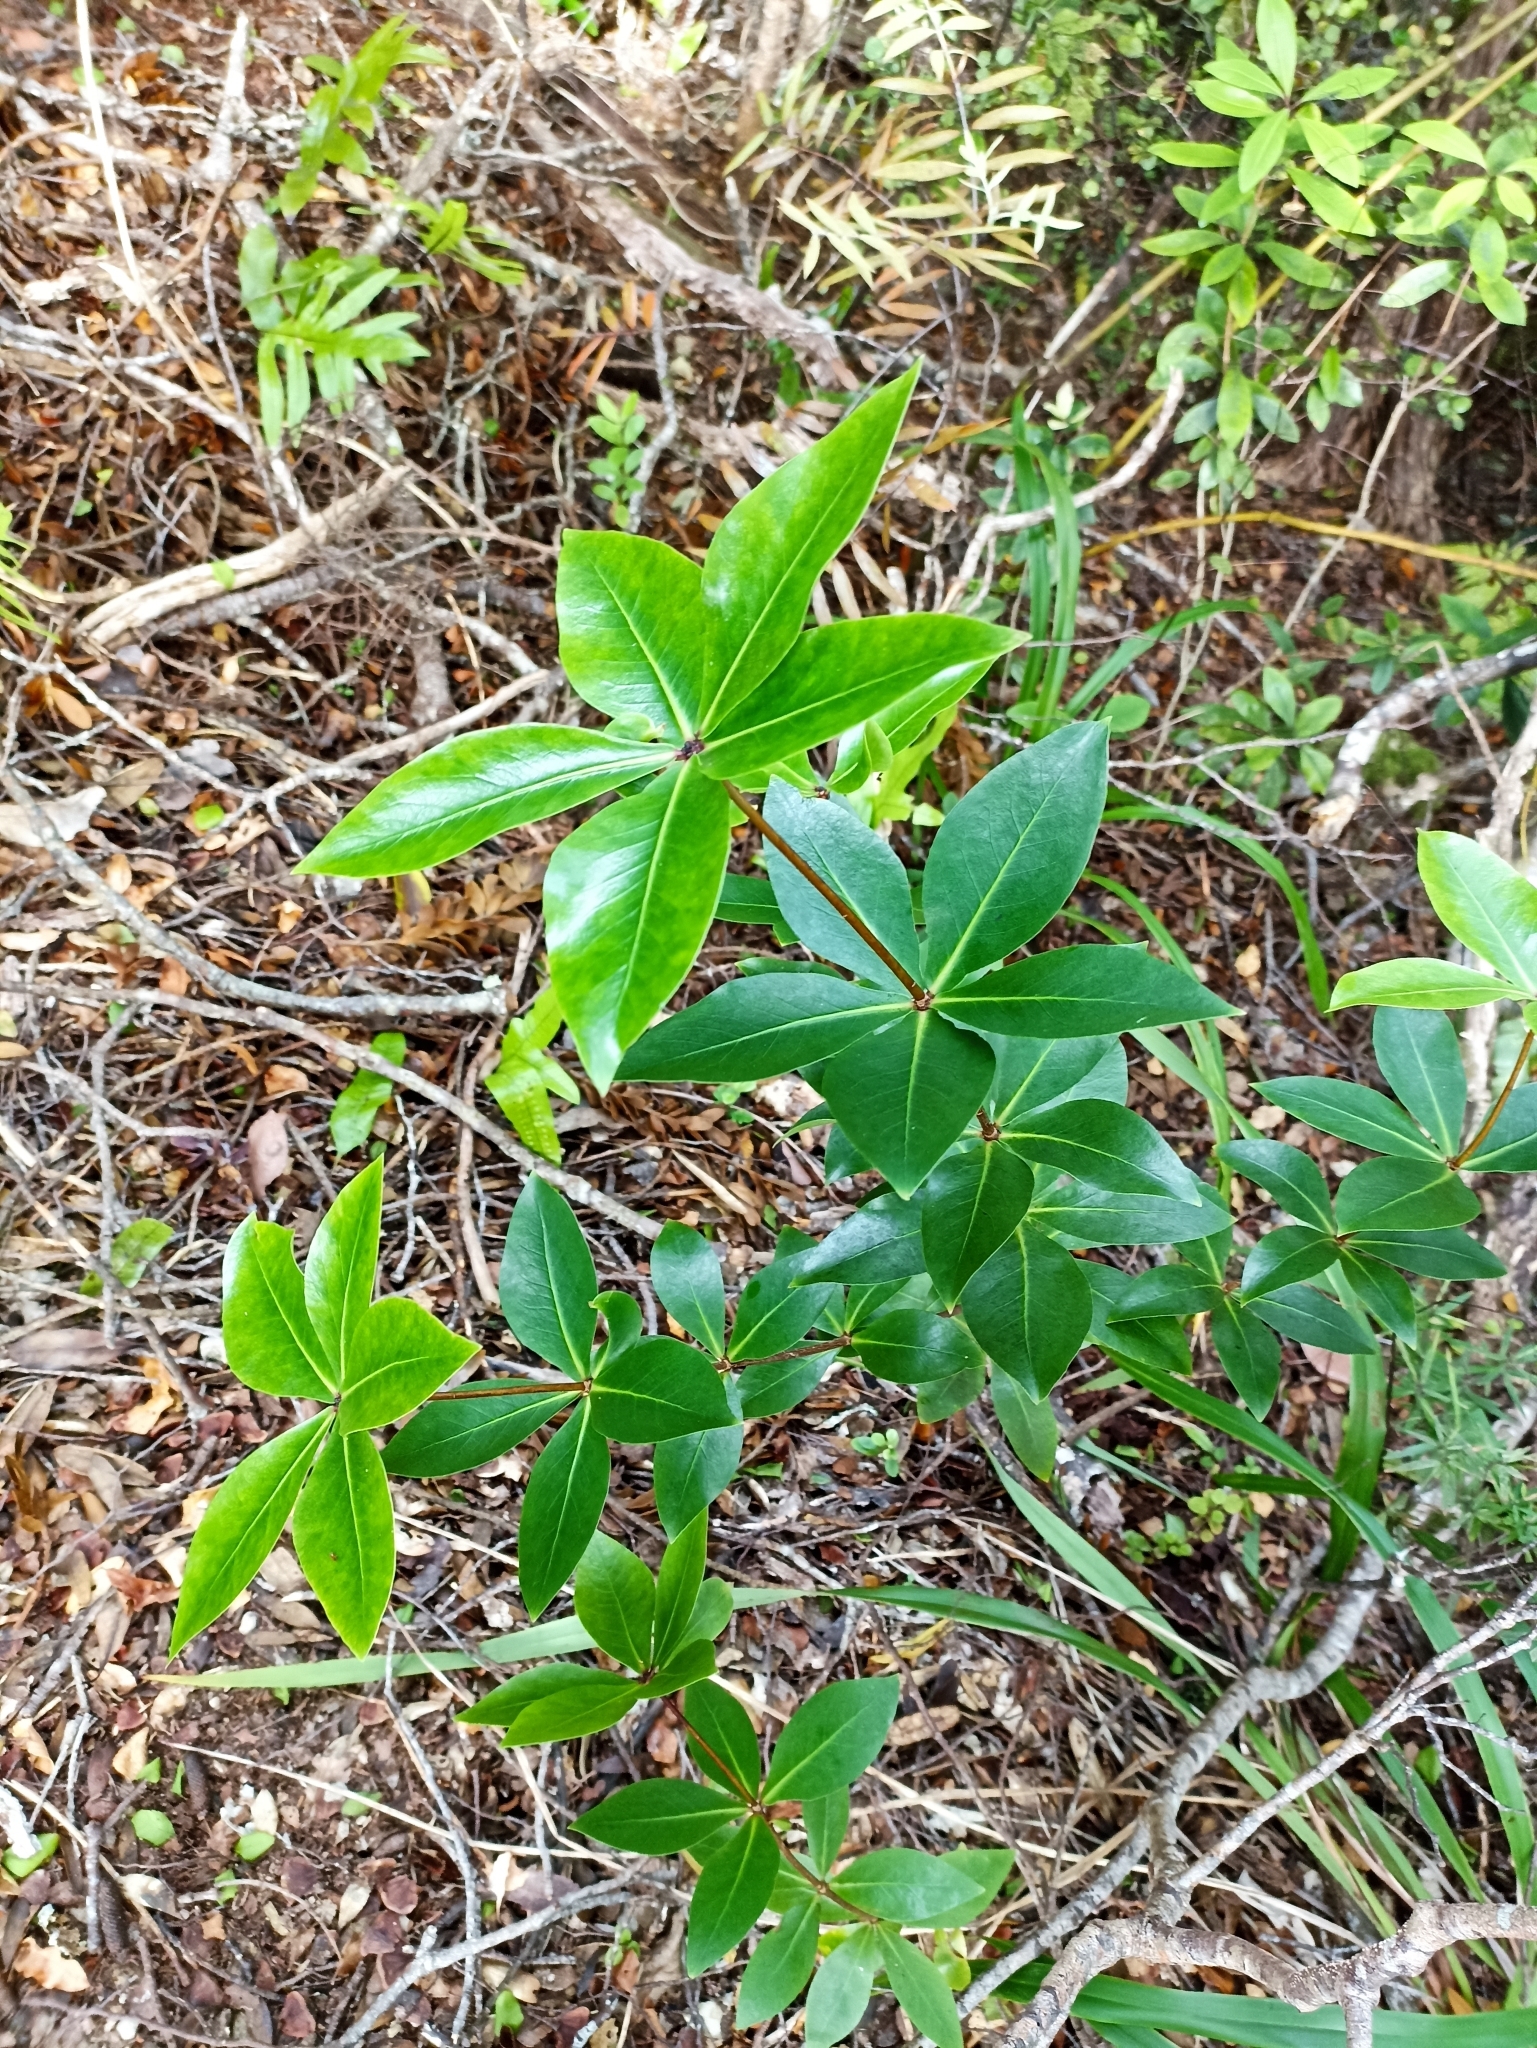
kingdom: Plantae
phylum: Tracheophyta
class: Magnoliopsida
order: Apiales
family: Pittosporaceae
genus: Pittosporum
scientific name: Pittosporum cornifolium
